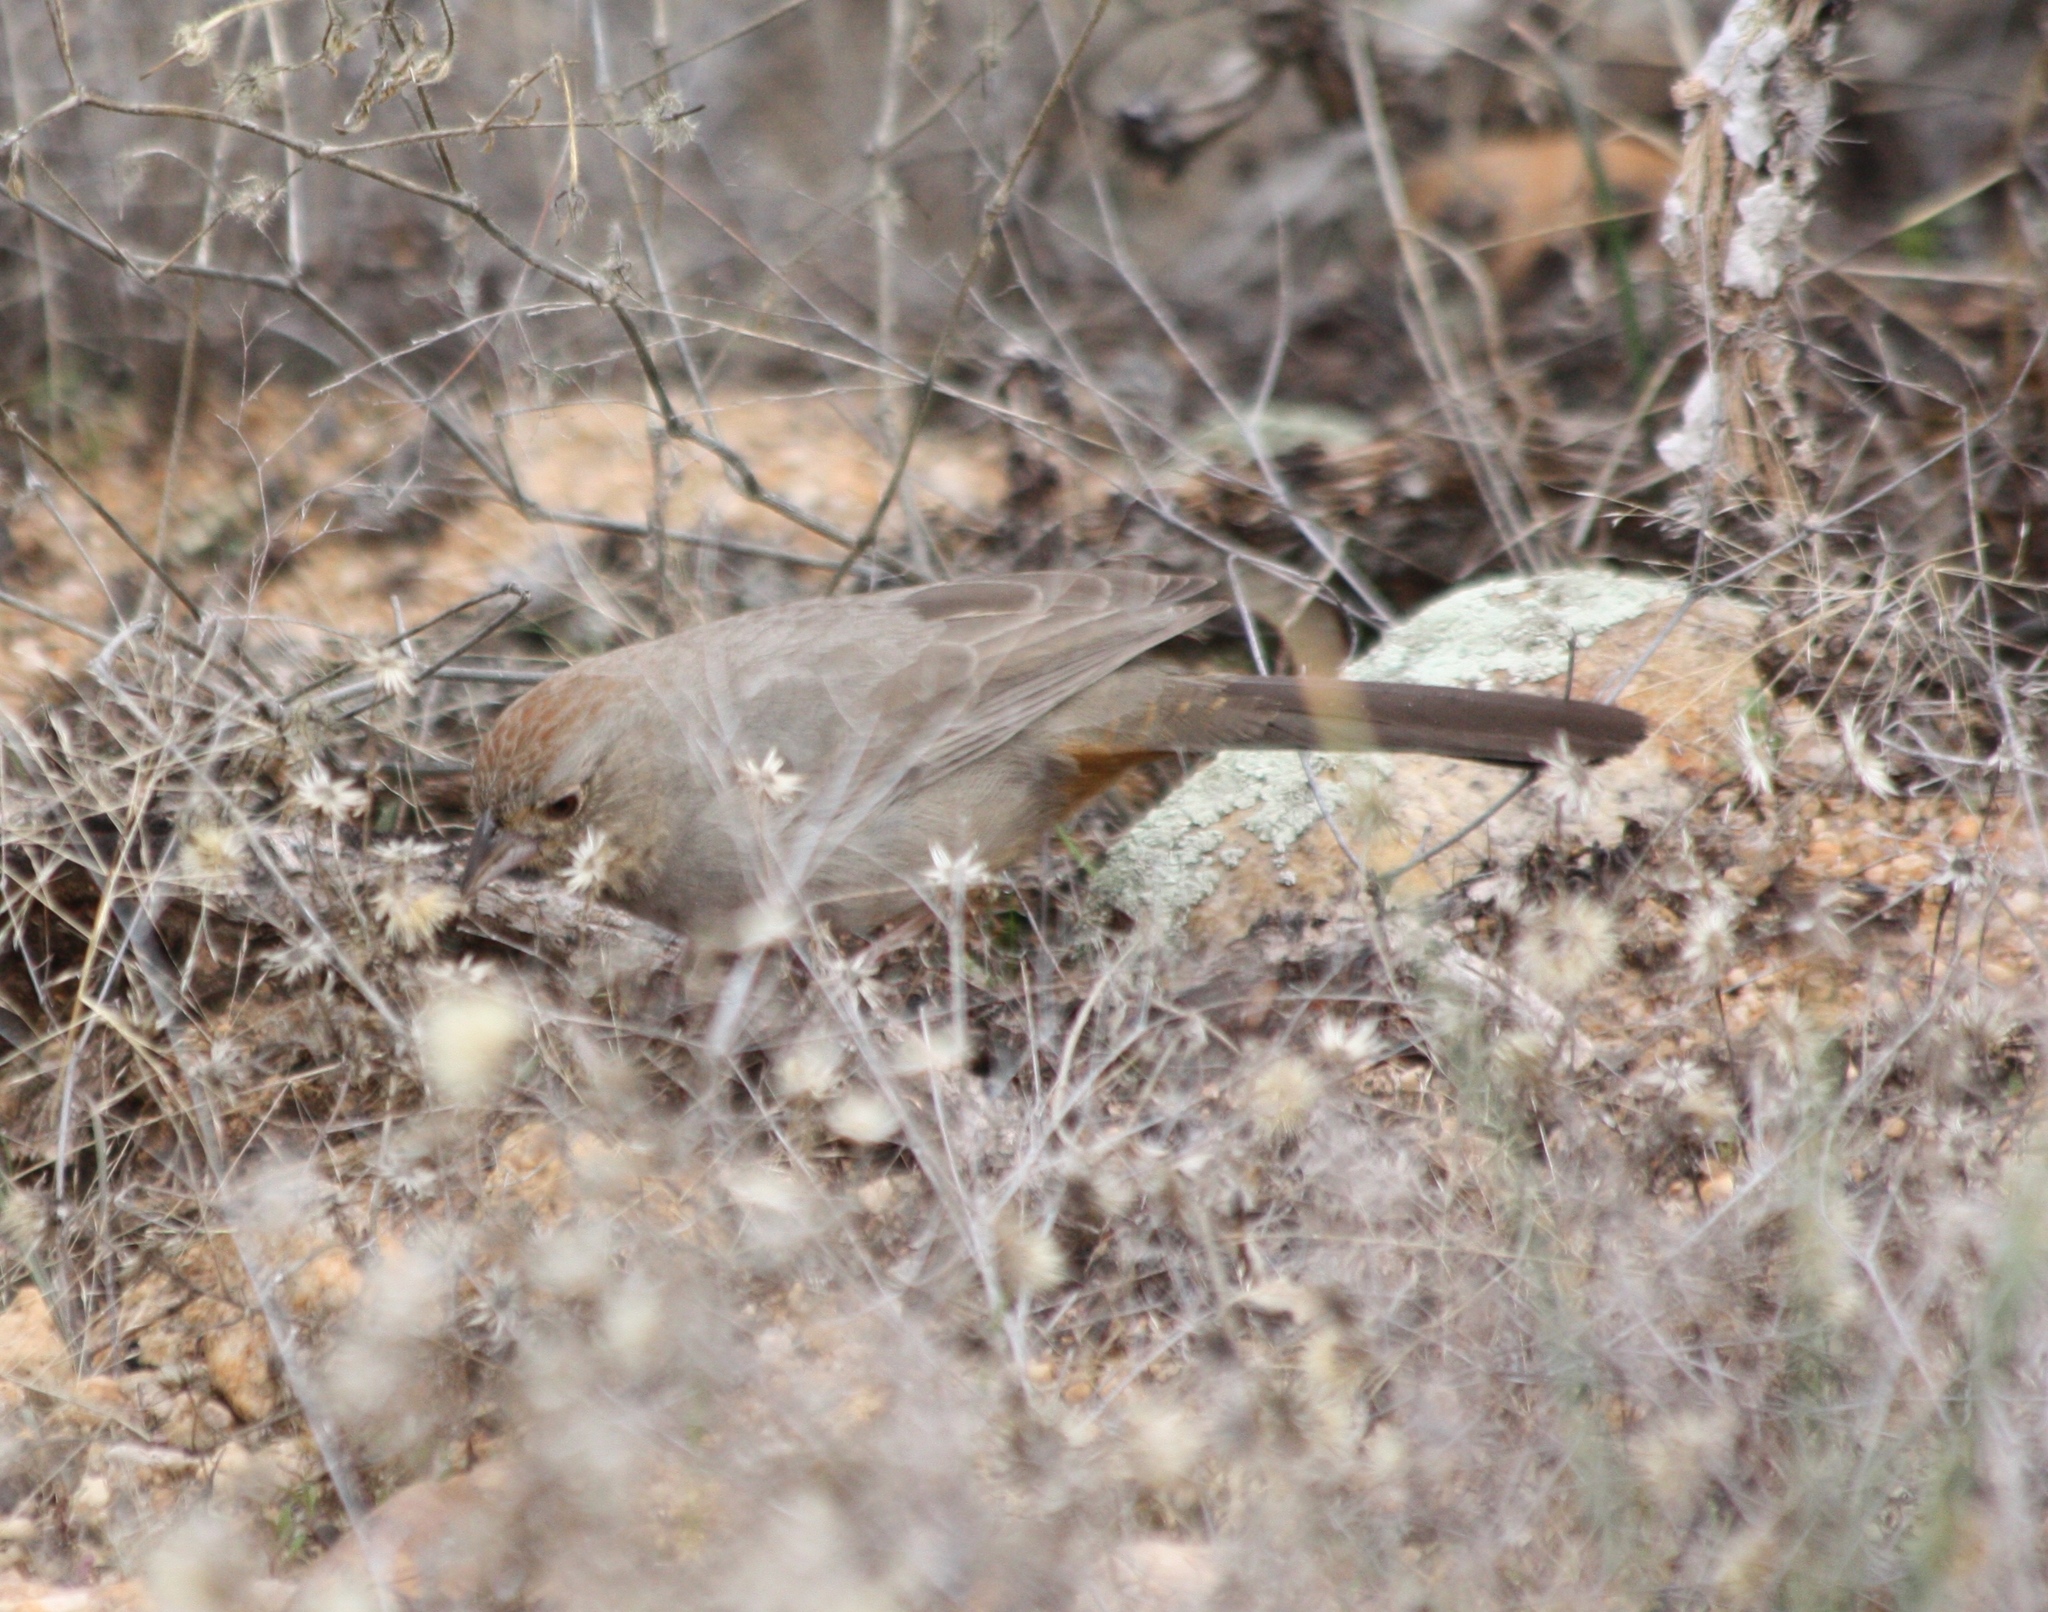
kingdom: Animalia
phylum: Chordata
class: Aves
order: Passeriformes
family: Passerellidae
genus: Melozone
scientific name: Melozone fusca
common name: Canyon towhee
